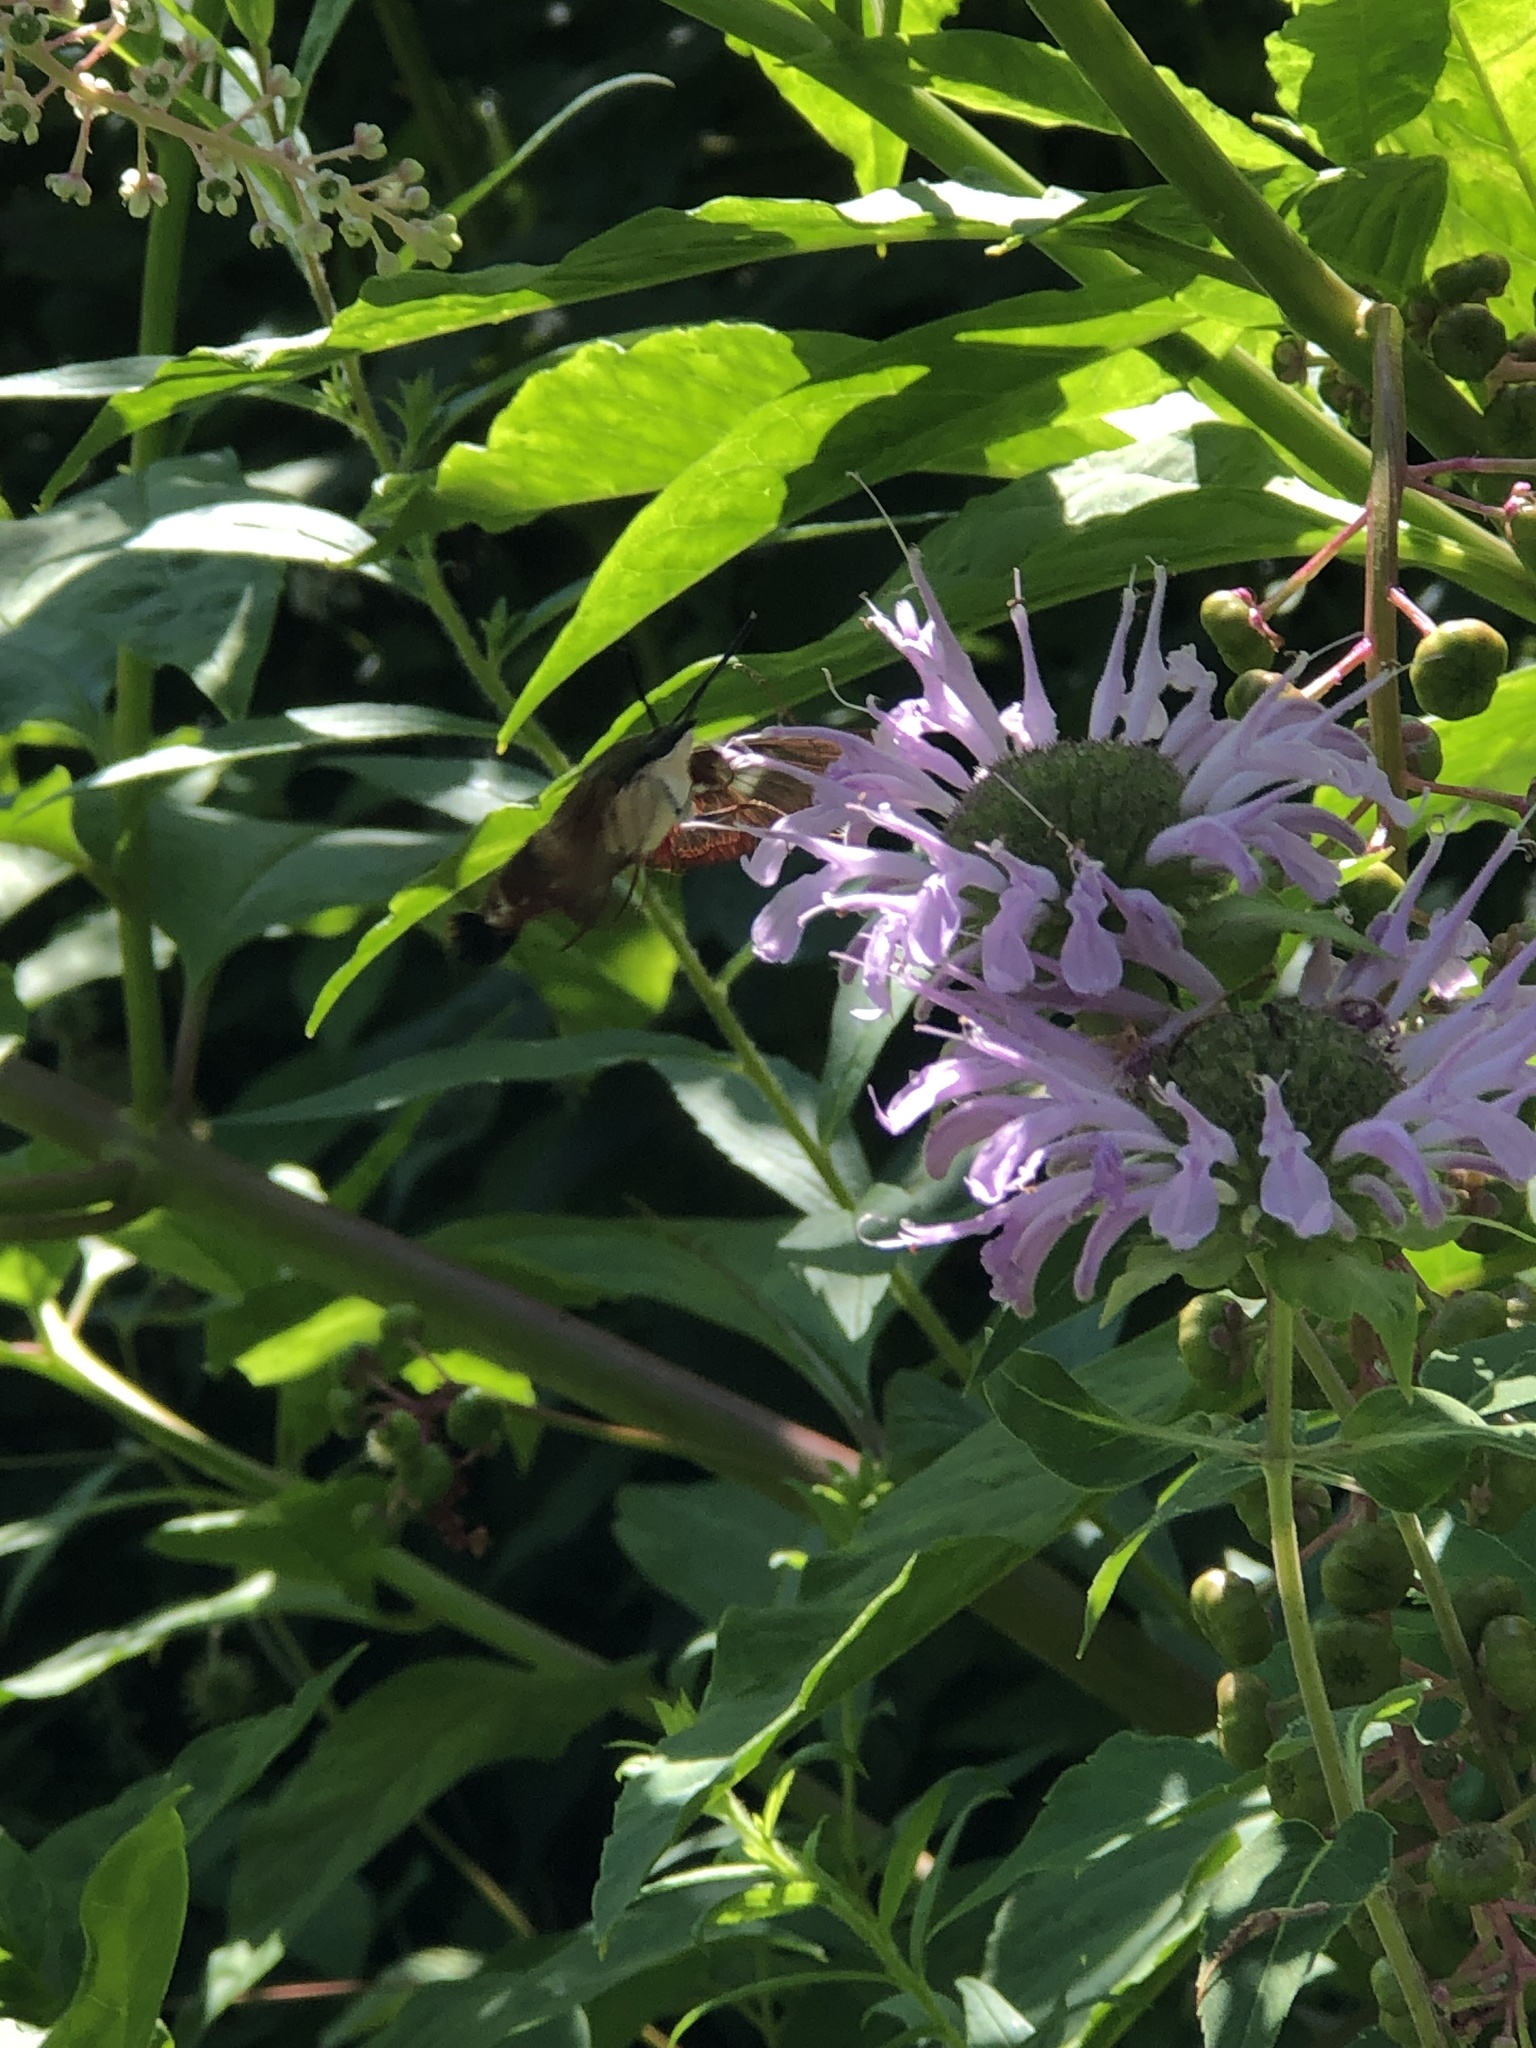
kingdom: Animalia
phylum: Arthropoda
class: Insecta
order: Lepidoptera
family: Sphingidae
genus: Hemaris
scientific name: Hemaris thysbe
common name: Common clear-wing
